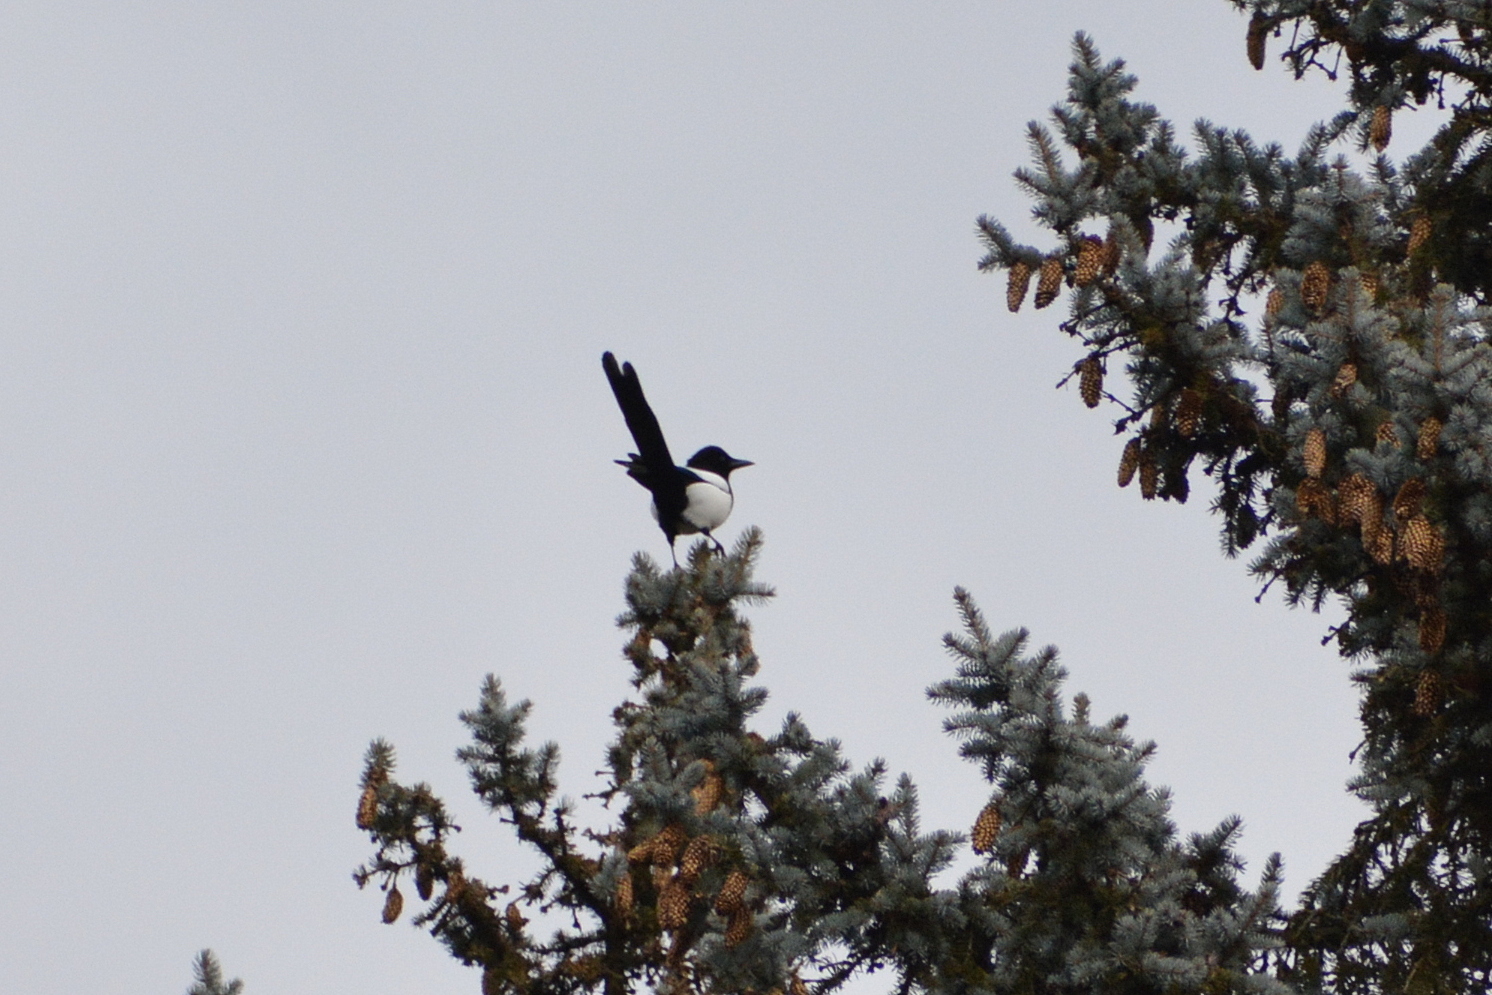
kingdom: Animalia
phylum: Chordata
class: Aves
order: Passeriformes
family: Corvidae
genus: Pica
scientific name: Pica pica
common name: Eurasian magpie
